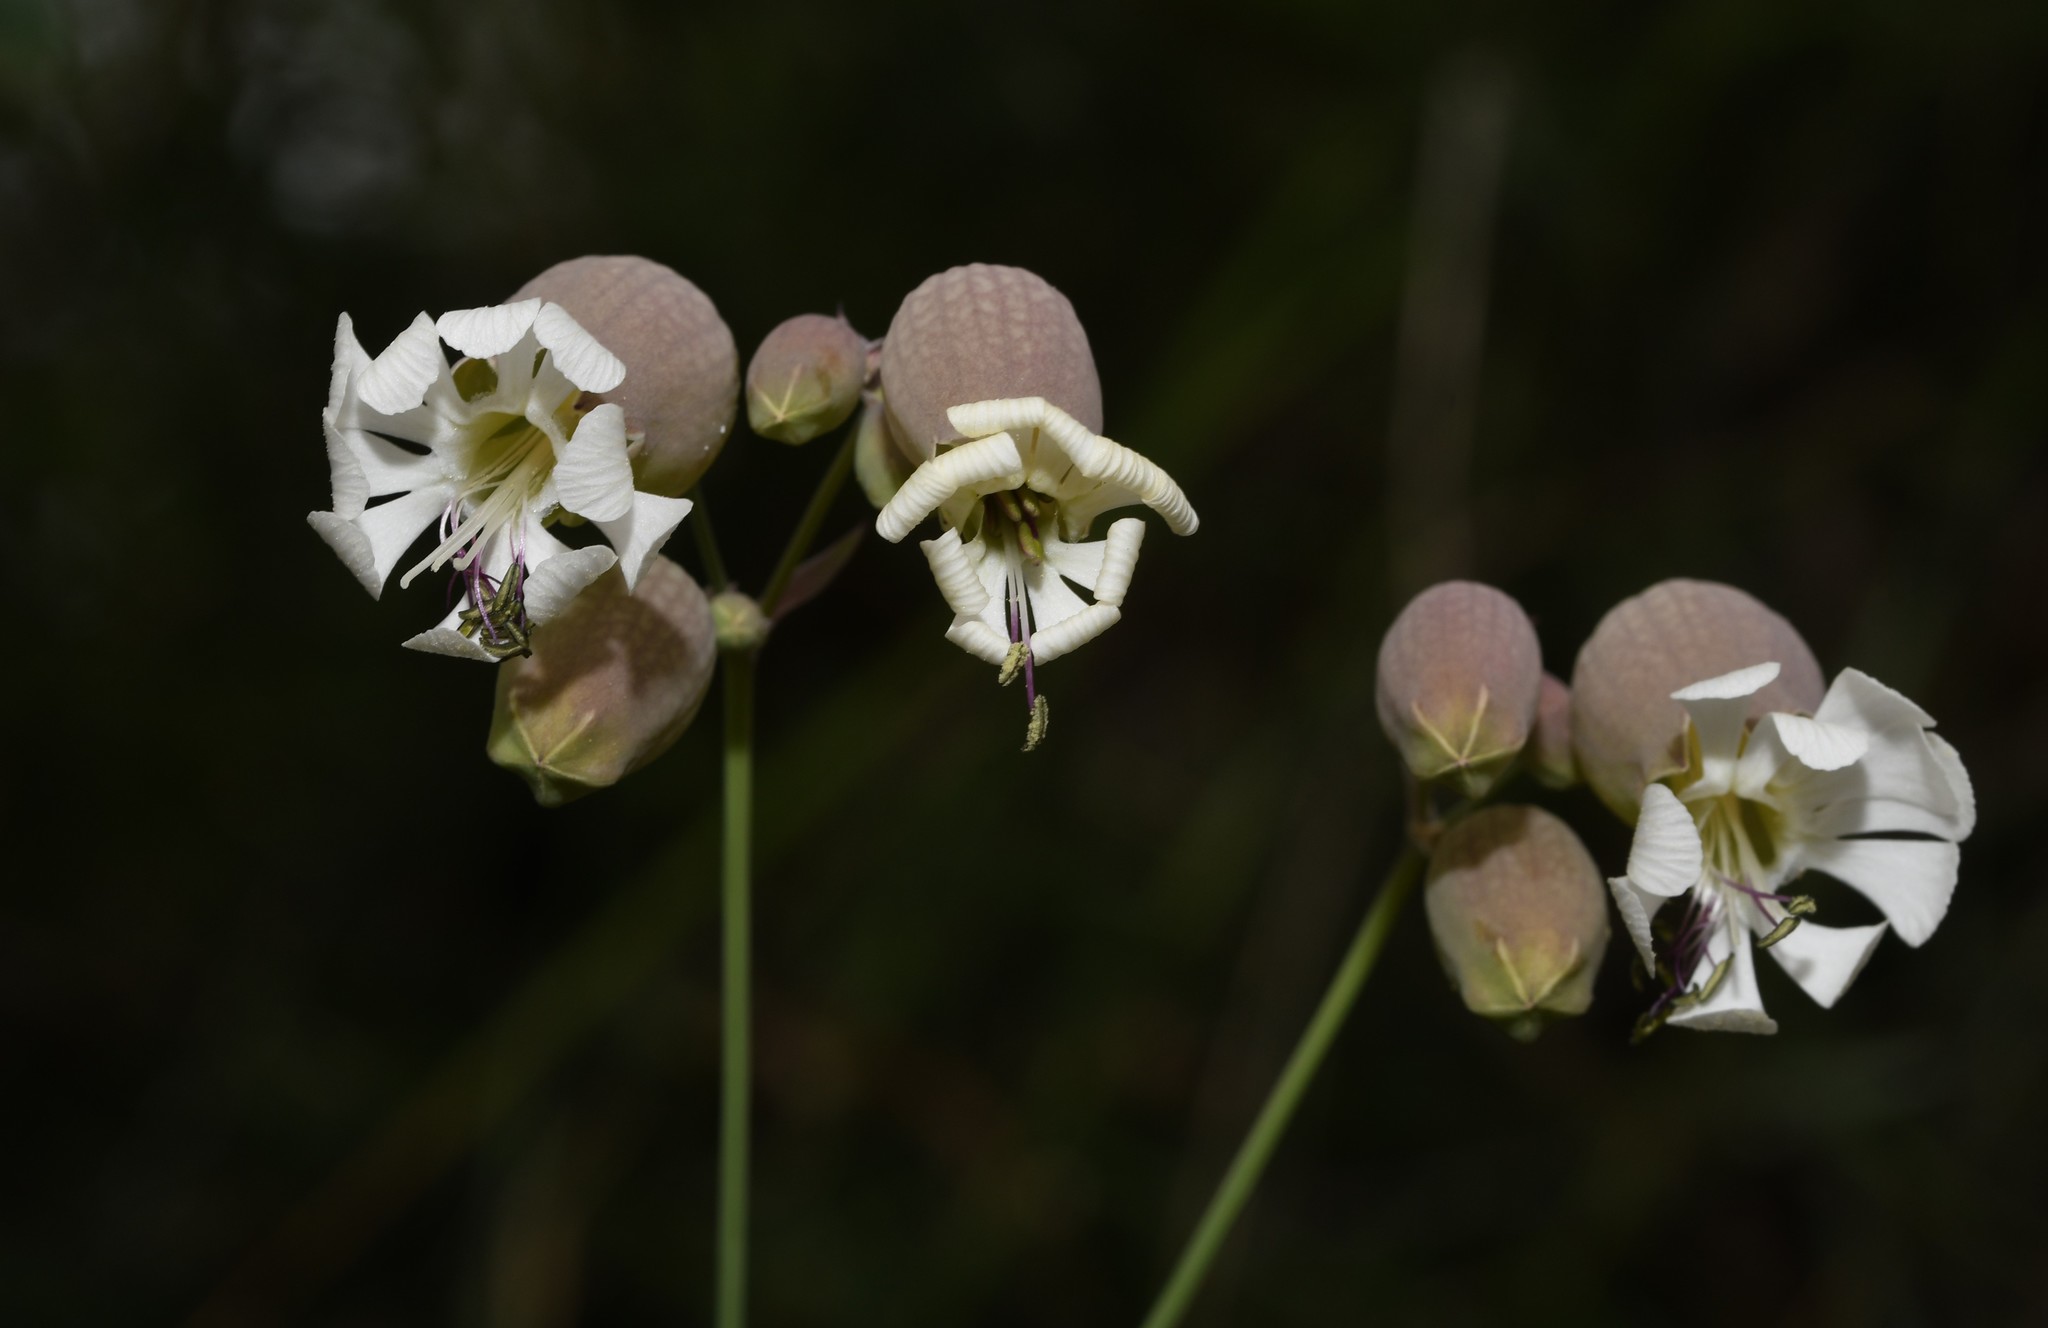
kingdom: Plantae
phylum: Tracheophyta
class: Magnoliopsida
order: Caryophyllales
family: Caryophyllaceae
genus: Silene
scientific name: Silene vulgaris
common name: Bladder campion
